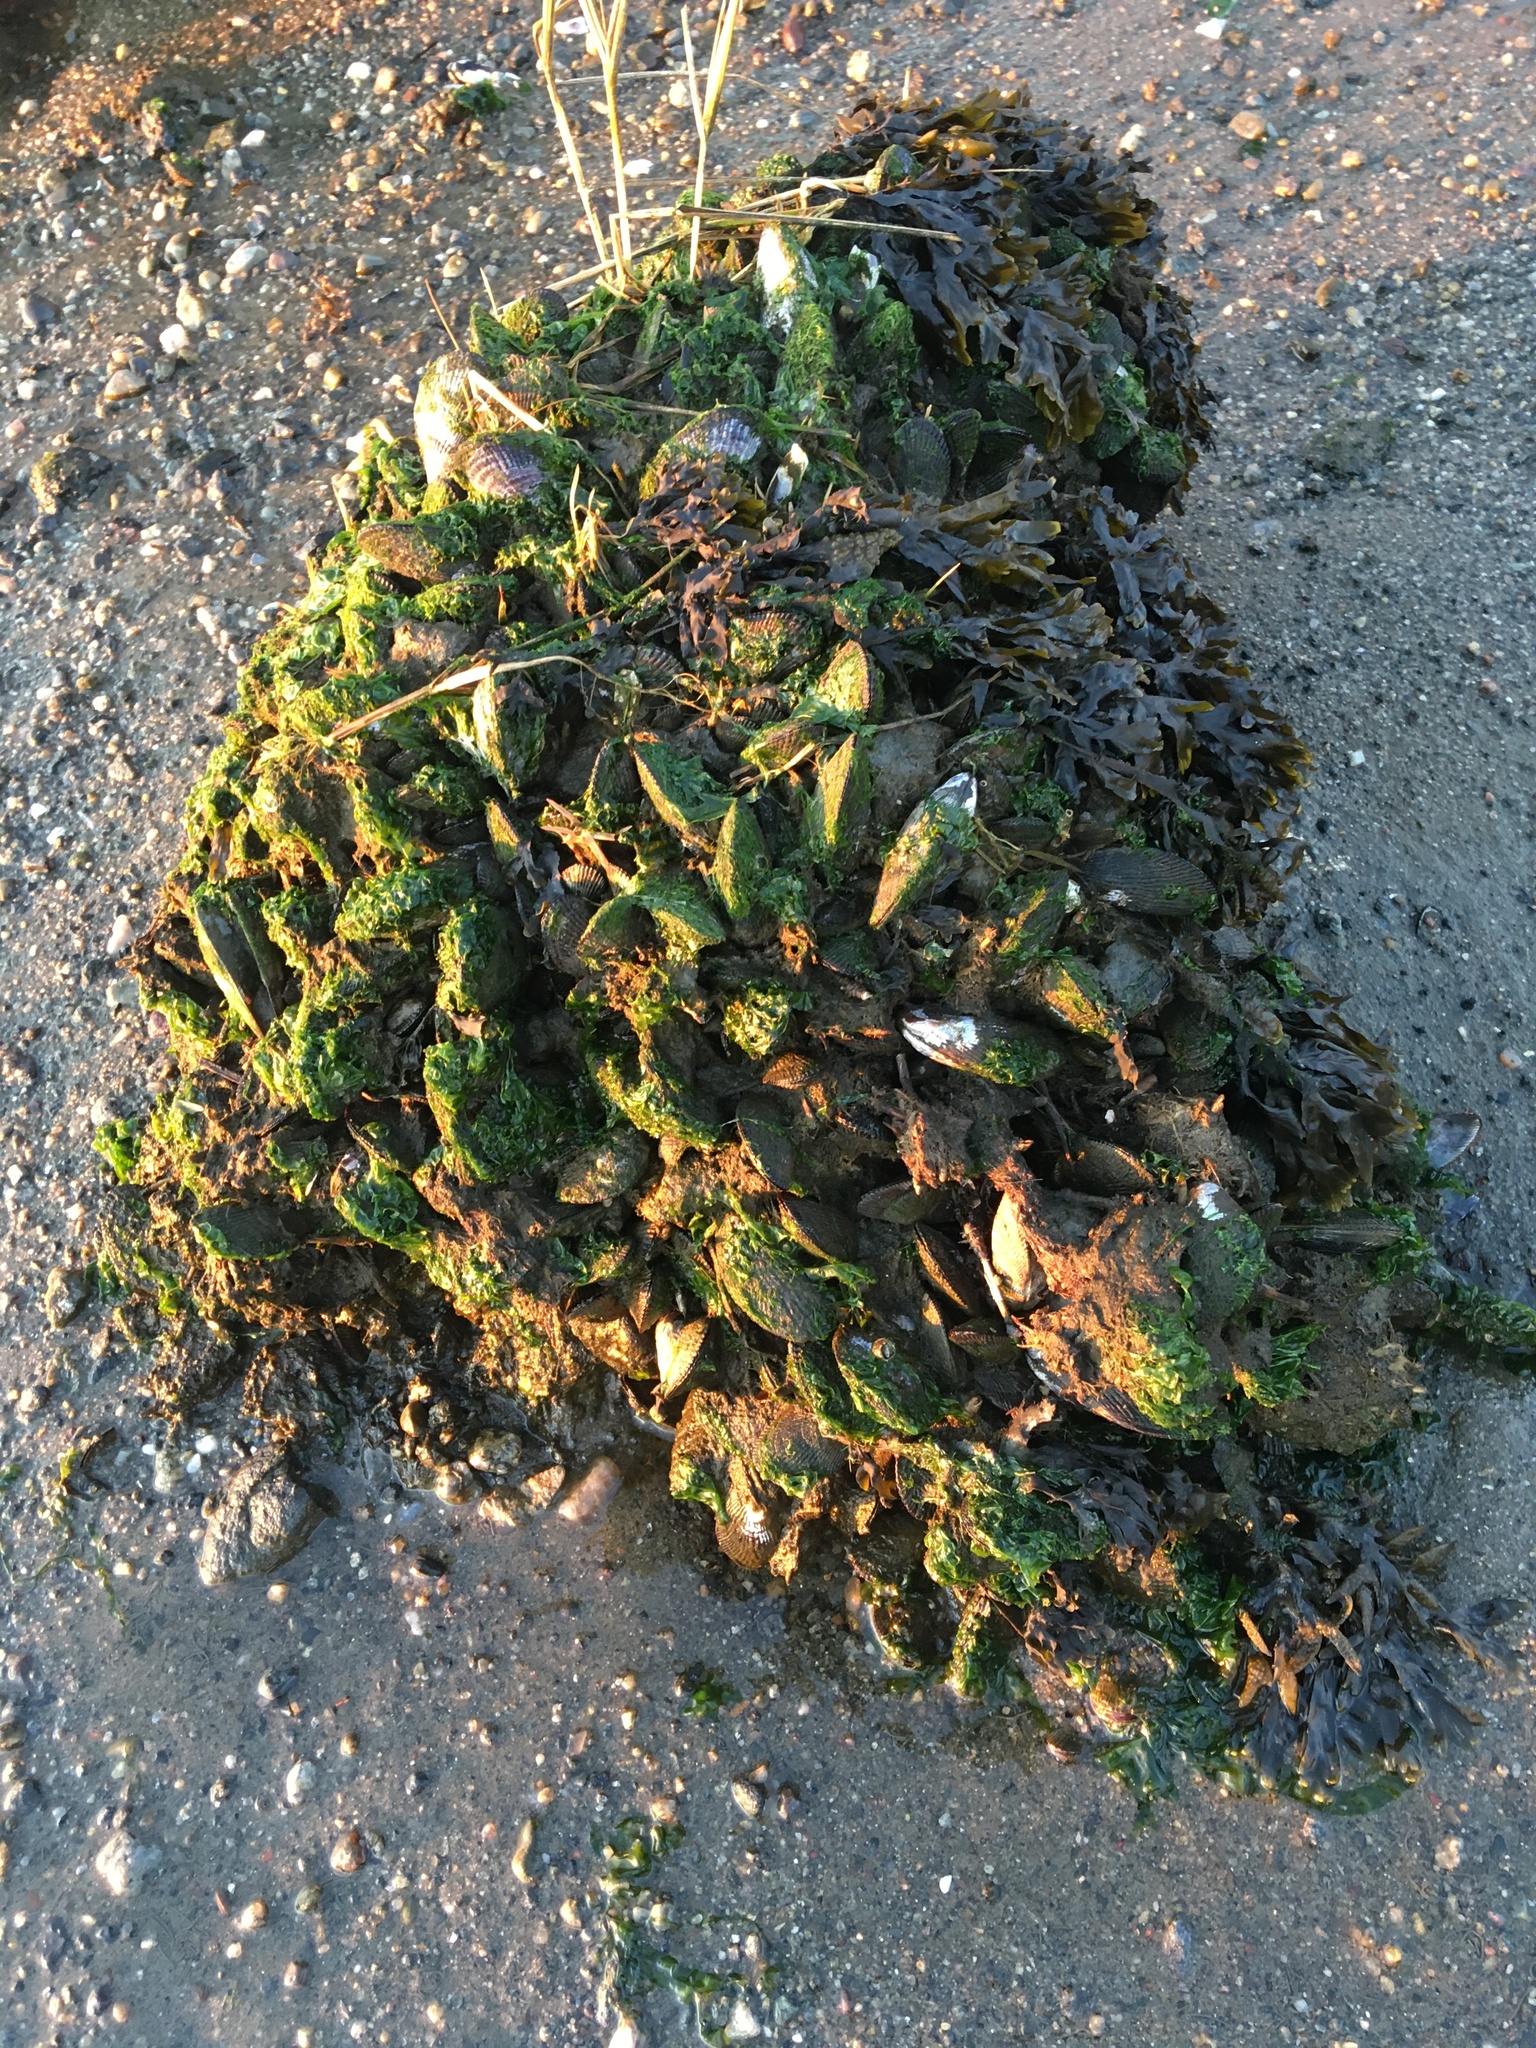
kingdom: Animalia
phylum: Mollusca
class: Bivalvia
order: Mytilida
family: Mytilidae
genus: Geukensia
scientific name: Geukensia demissa
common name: Ribbed mussel
